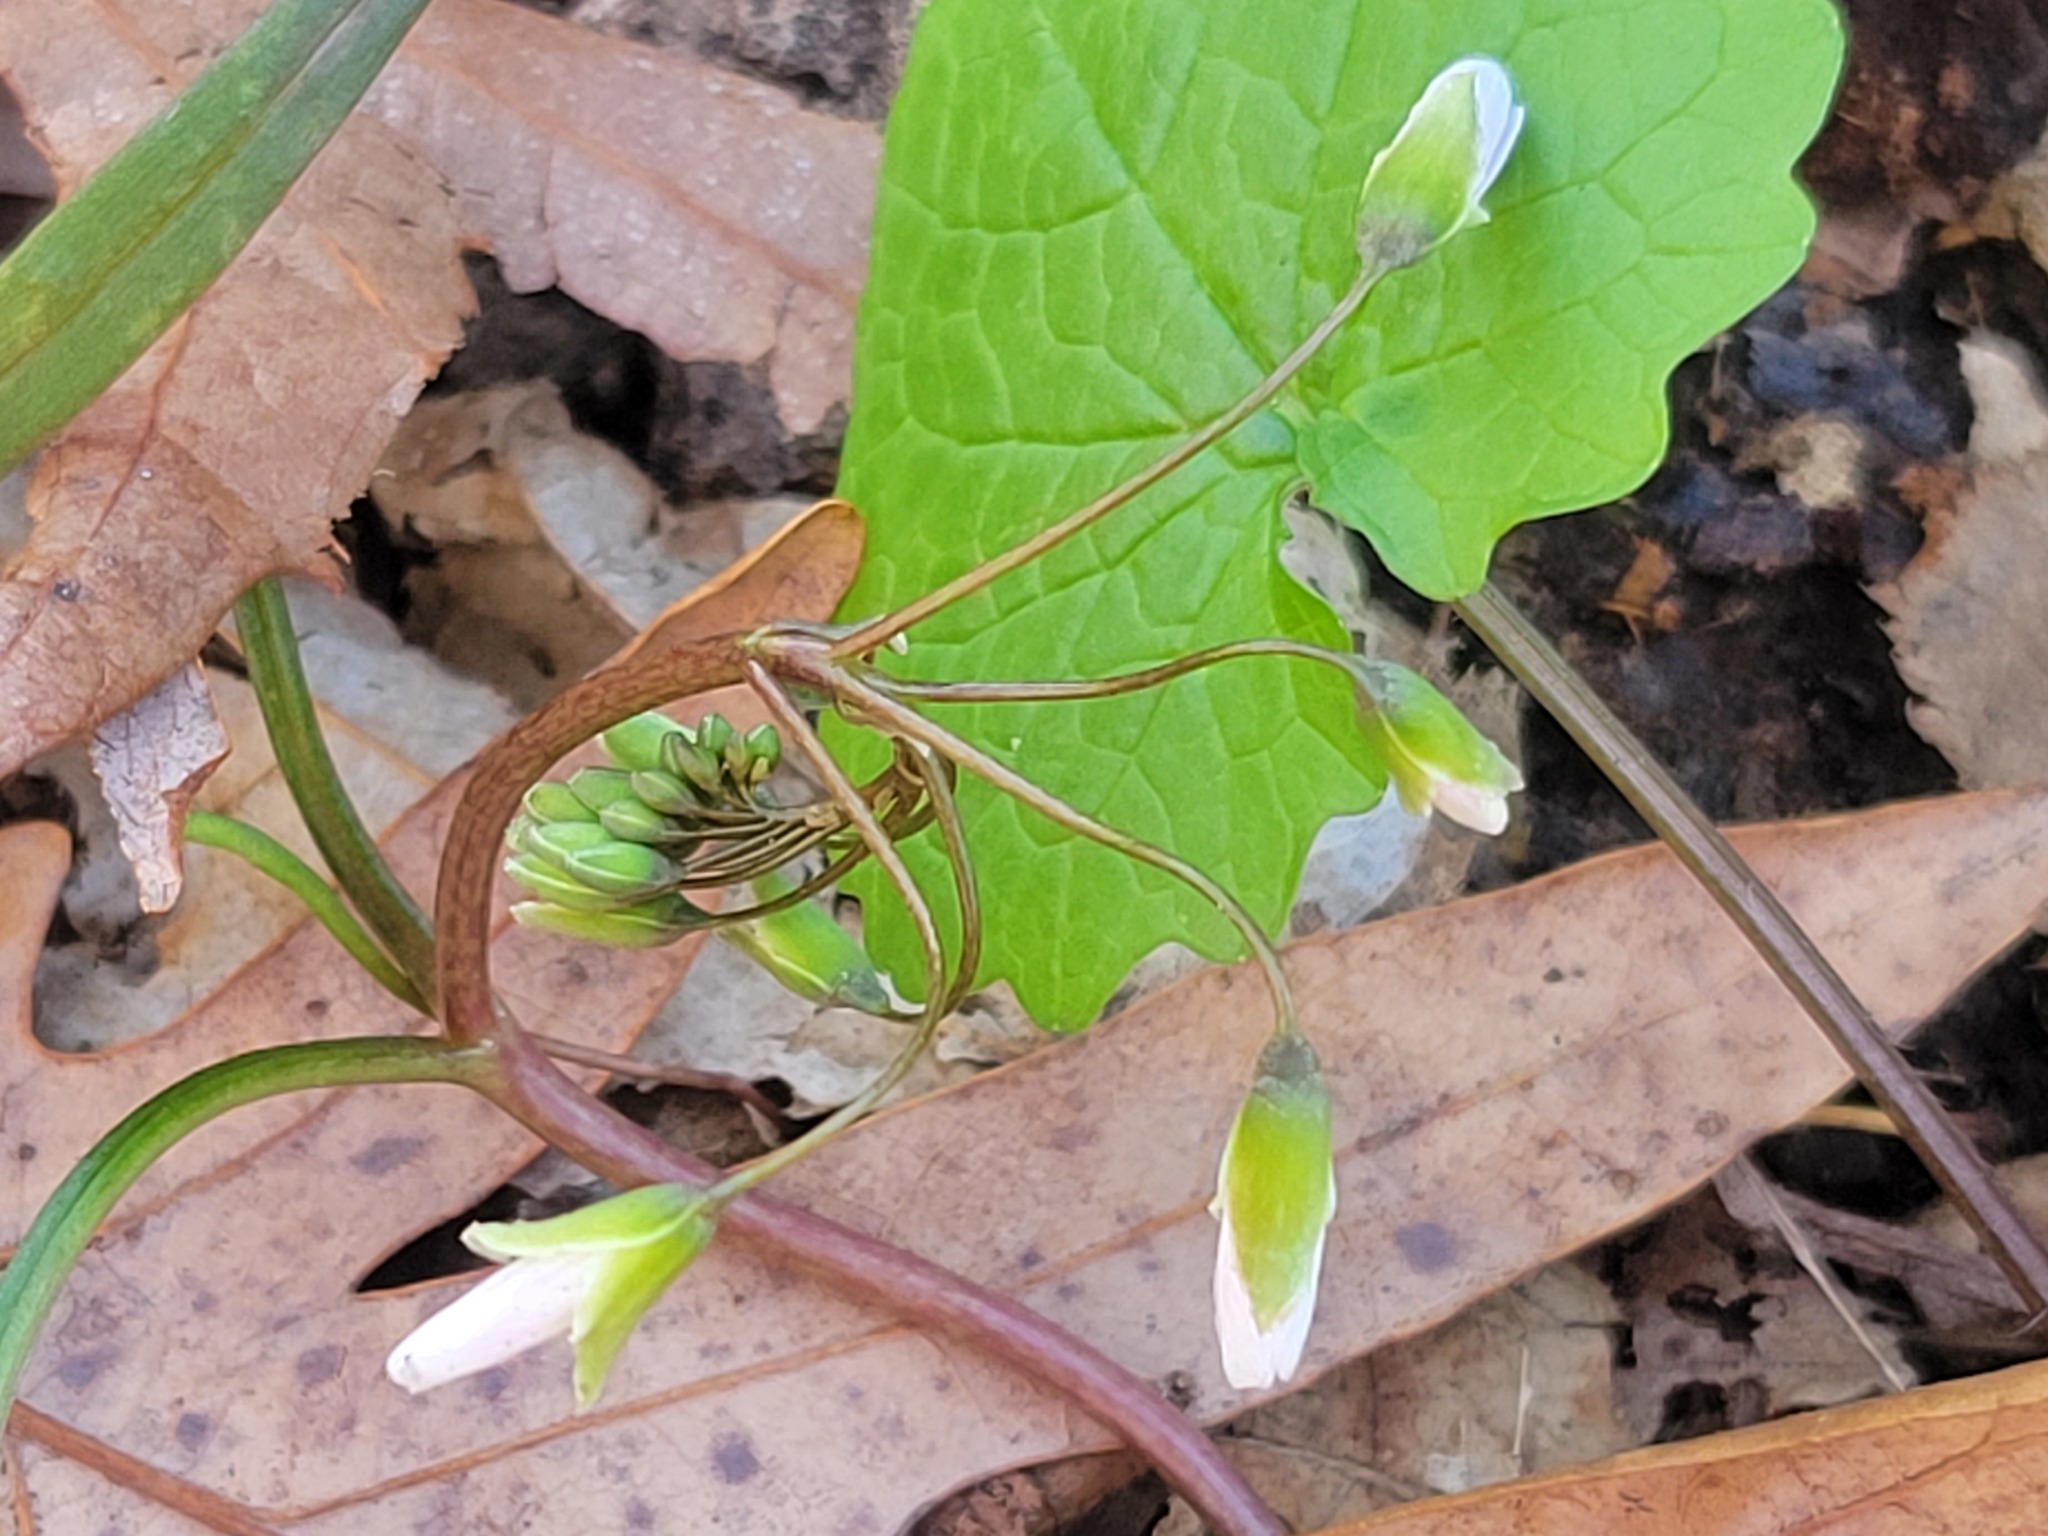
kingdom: Plantae
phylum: Tracheophyta
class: Magnoliopsida
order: Brassicales
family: Brassicaceae
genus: Alliaria
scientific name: Alliaria petiolata
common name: Garlic mustard
